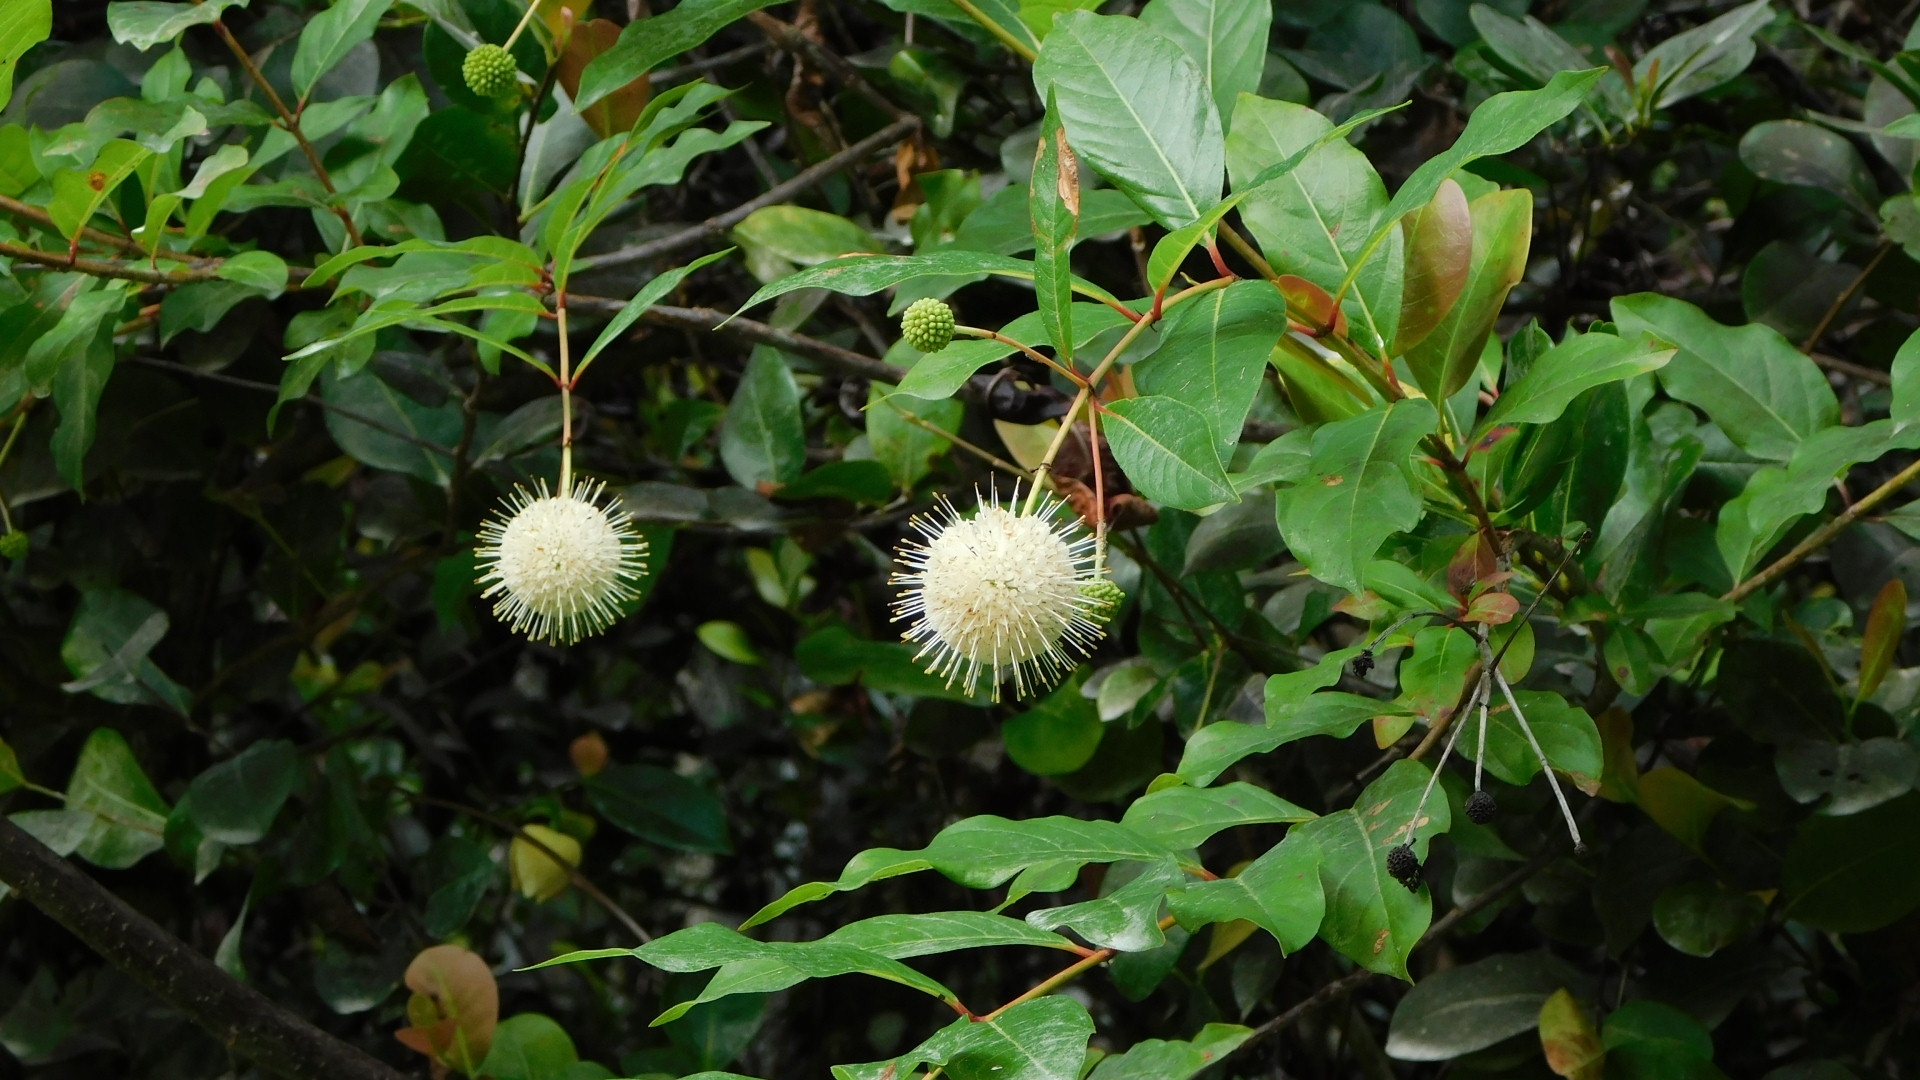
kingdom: Plantae
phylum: Tracheophyta
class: Magnoliopsida
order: Gentianales
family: Rubiaceae
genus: Cephalanthus
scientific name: Cephalanthus occidentalis
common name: Button-willow
